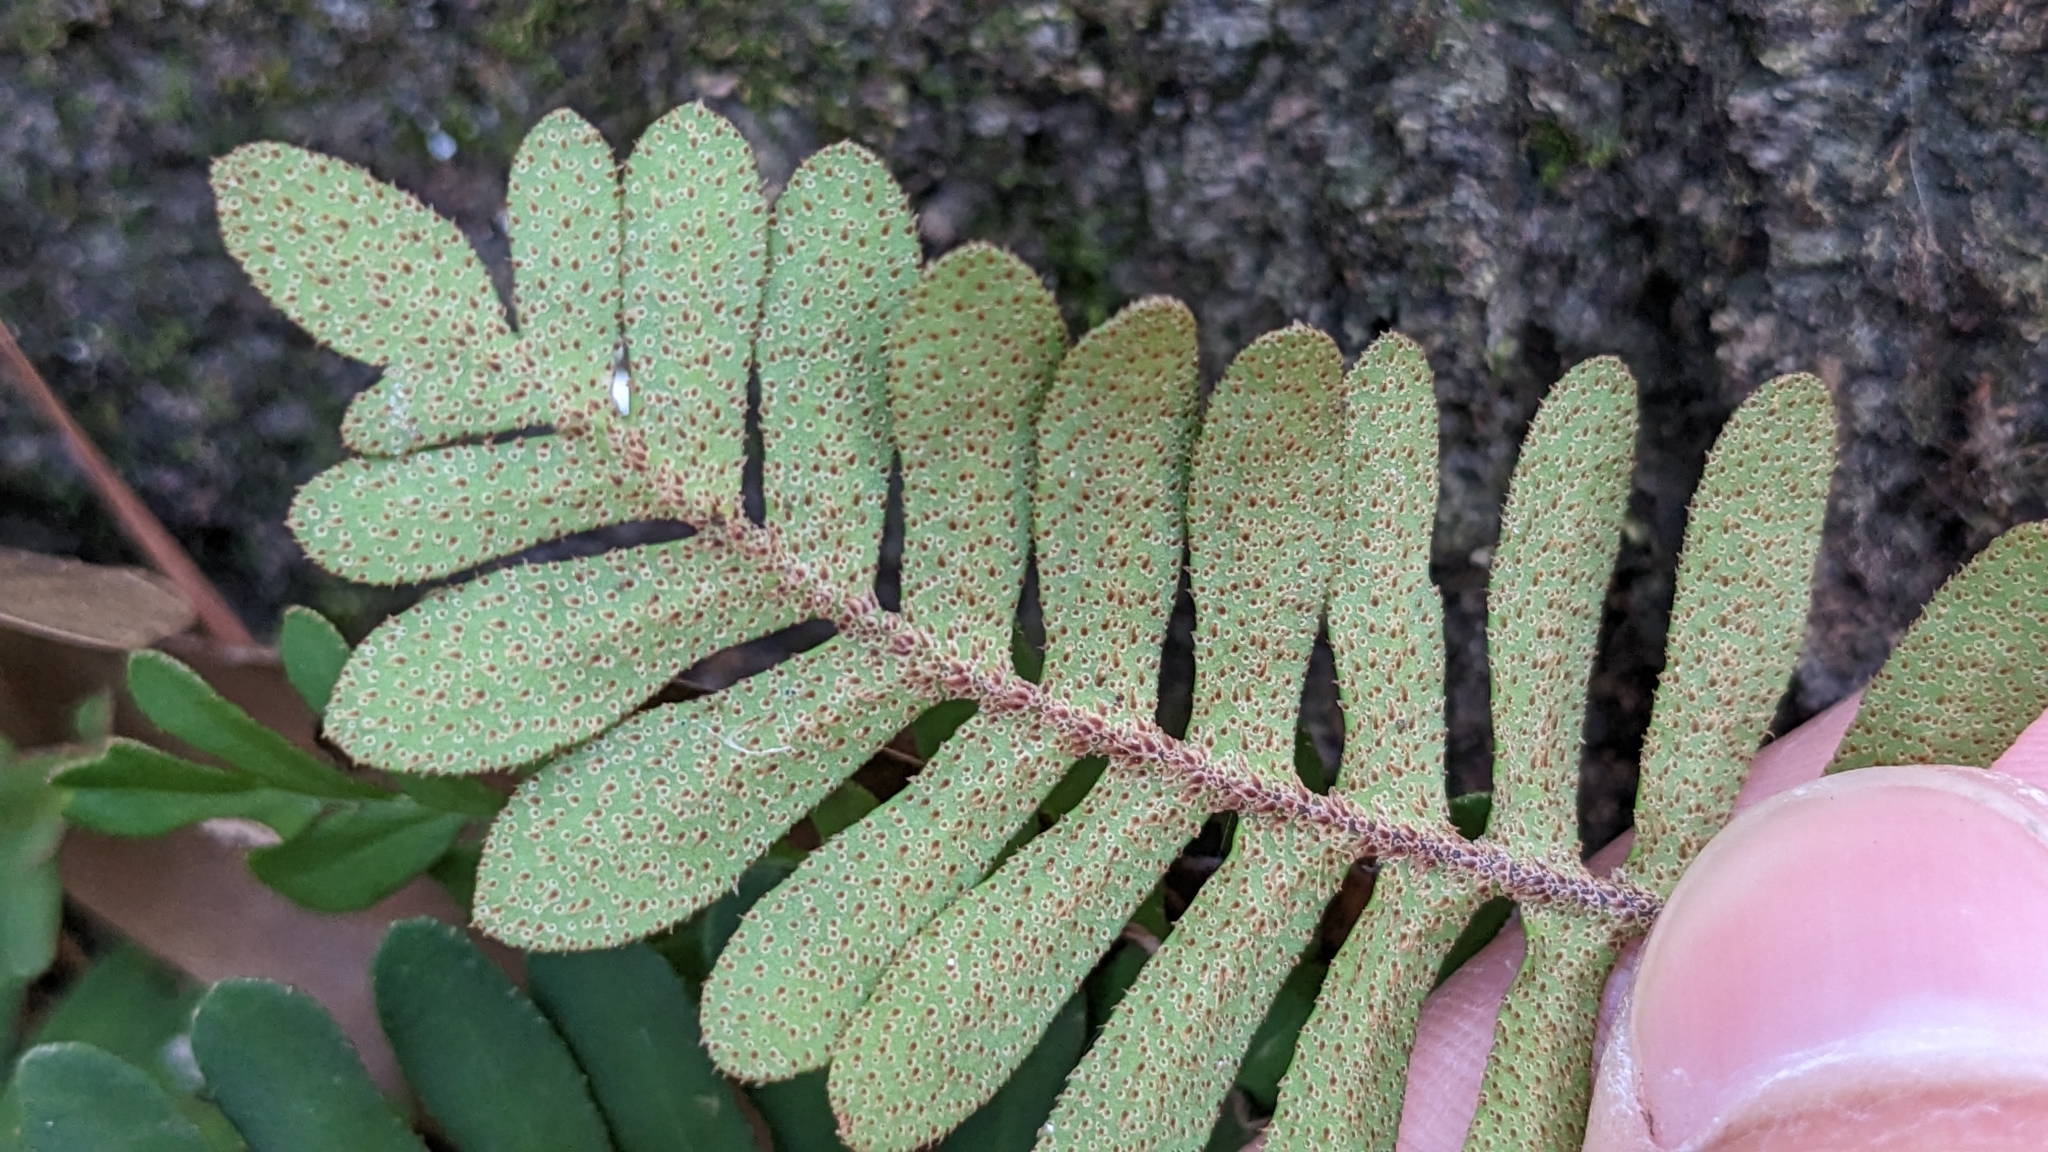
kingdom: Plantae
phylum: Tracheophyta
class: Polypodiopsida
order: Polypodiales
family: Polypodiaceae
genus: Pleopeltis
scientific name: Pleopeltis michauxiana
